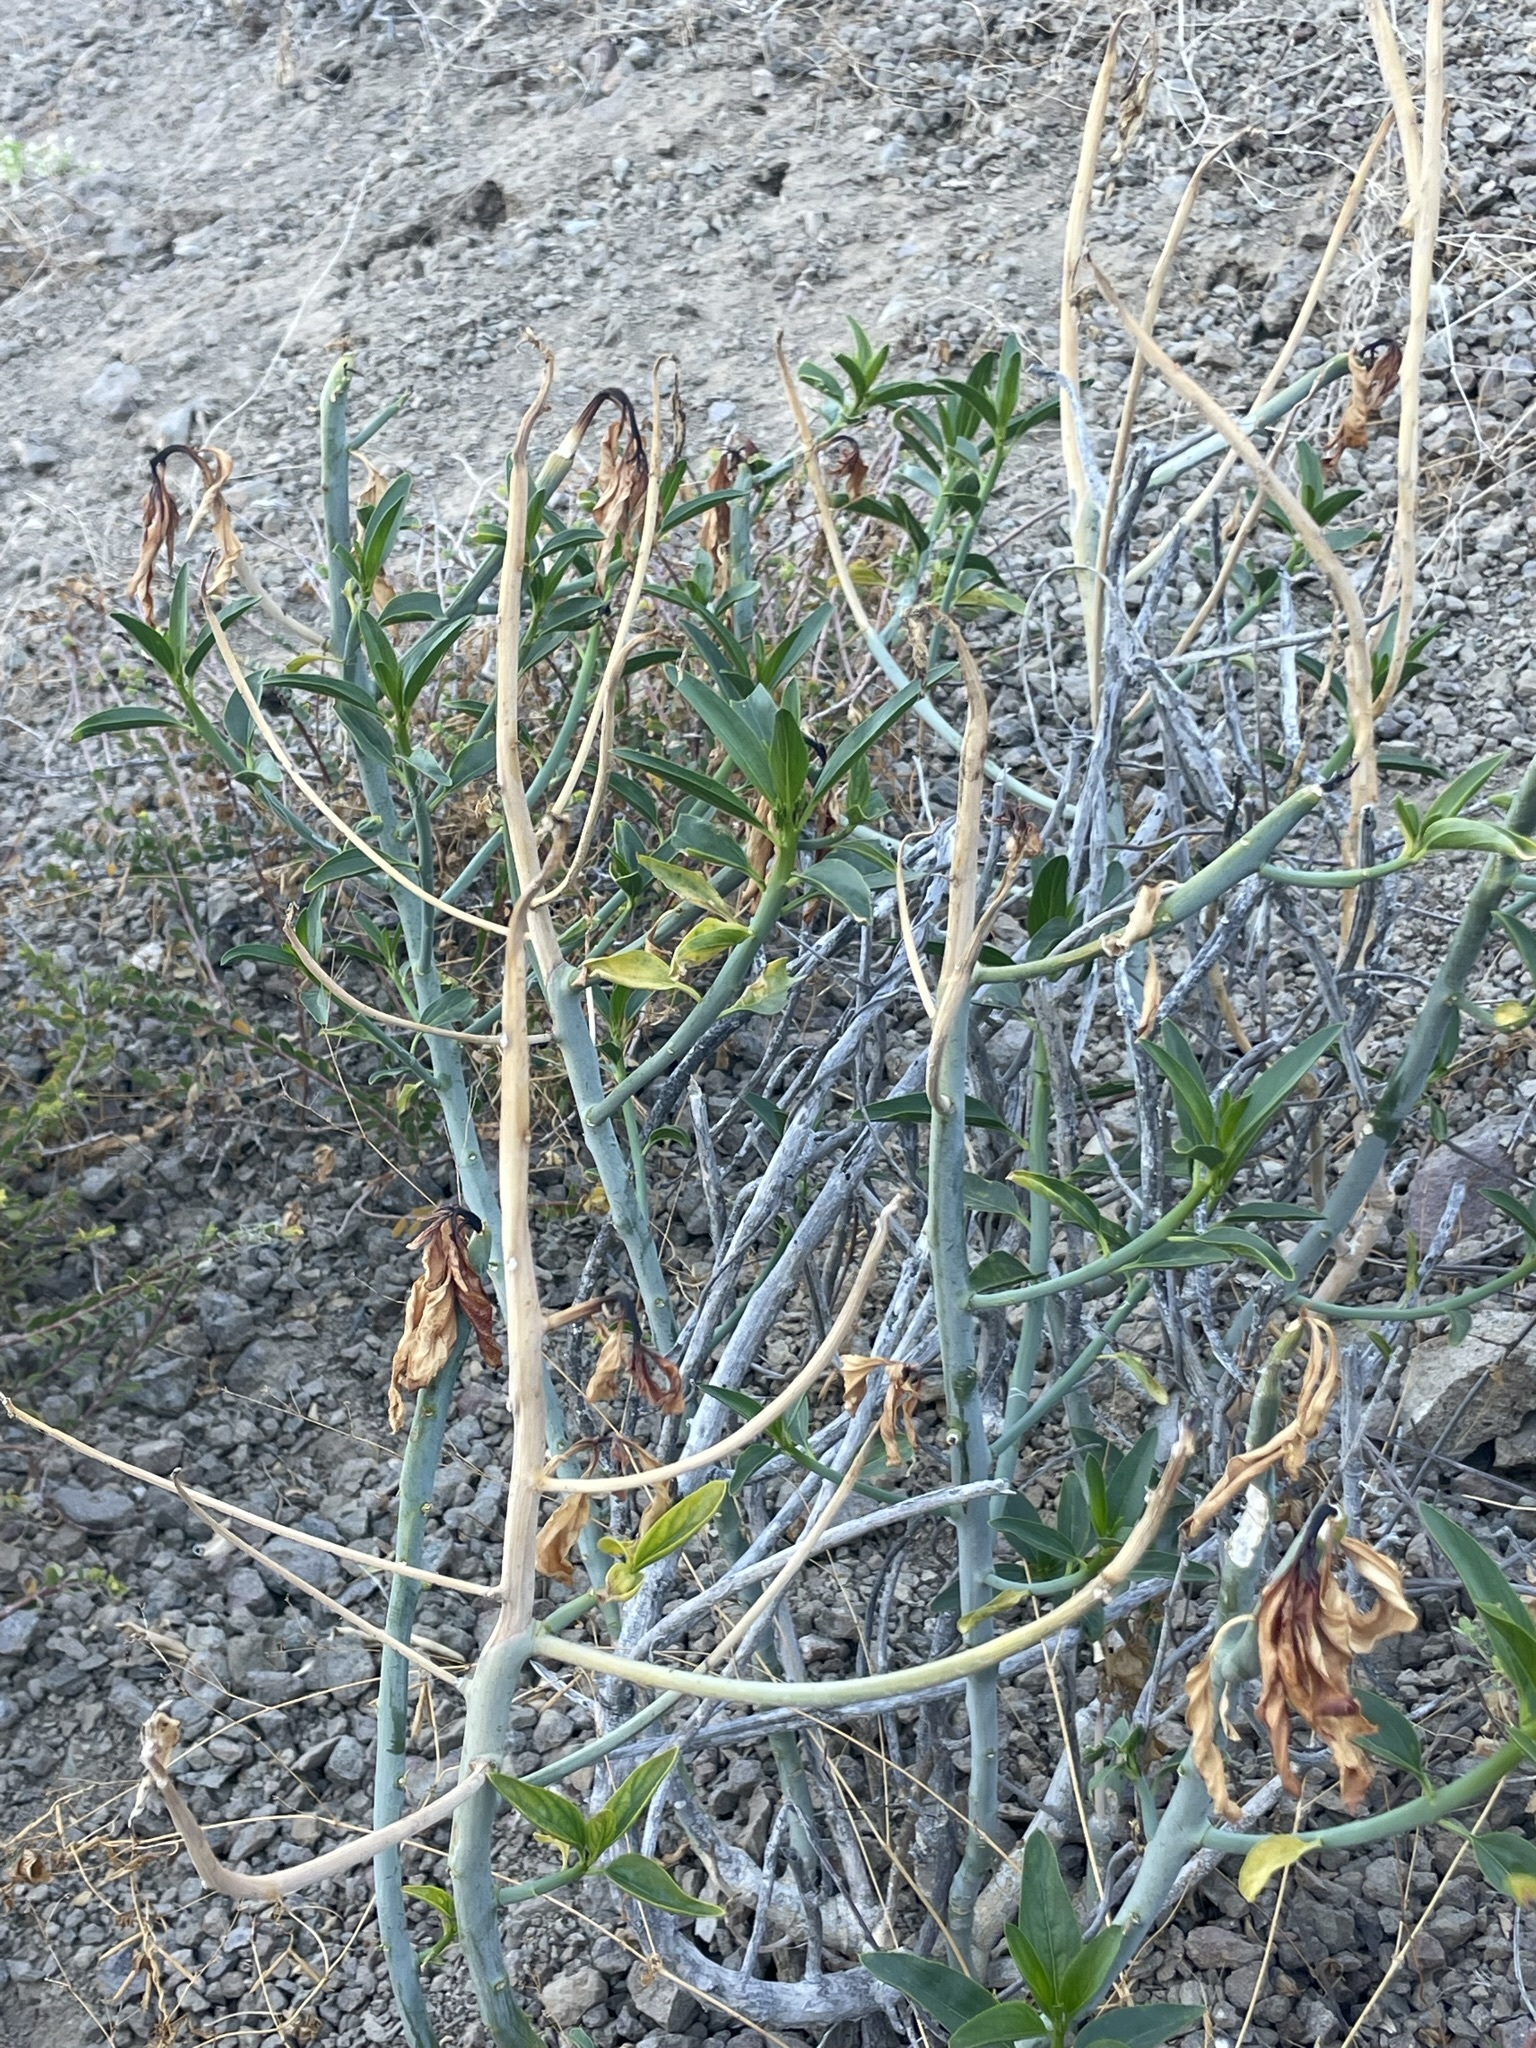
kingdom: Plantae
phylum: Tracheophyta
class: Magnoliopsida
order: Malpighiales
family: Euphorbiaceae
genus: Ditaxis
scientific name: Ditaxis brandegeei
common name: Sonoran silverbush
